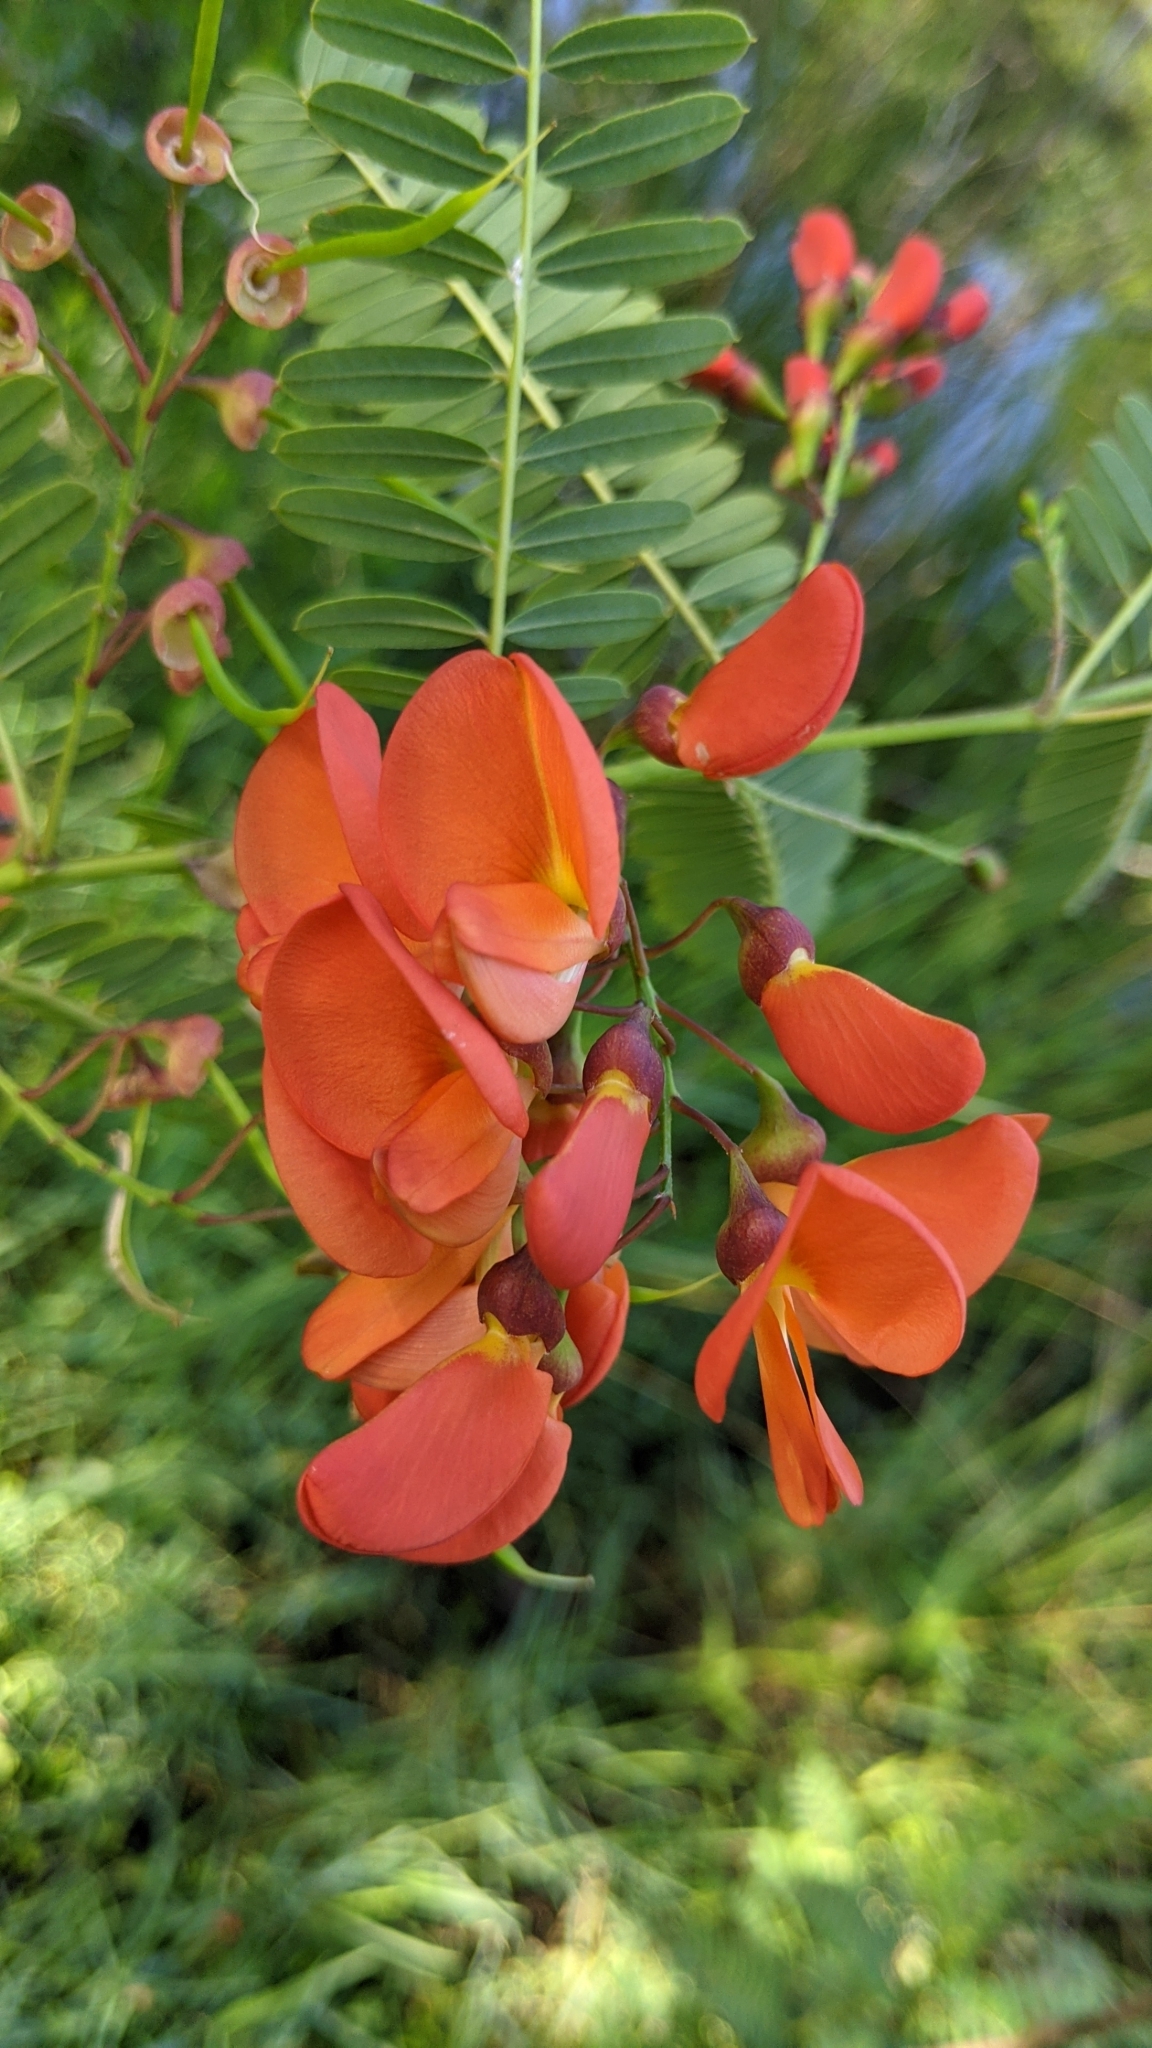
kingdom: Plantae
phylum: Tracheophyta
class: Magnoliopsida
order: Fabales
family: Fabaceae
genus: Sesbania
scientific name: Sesbania punicea
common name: Rattlebox
